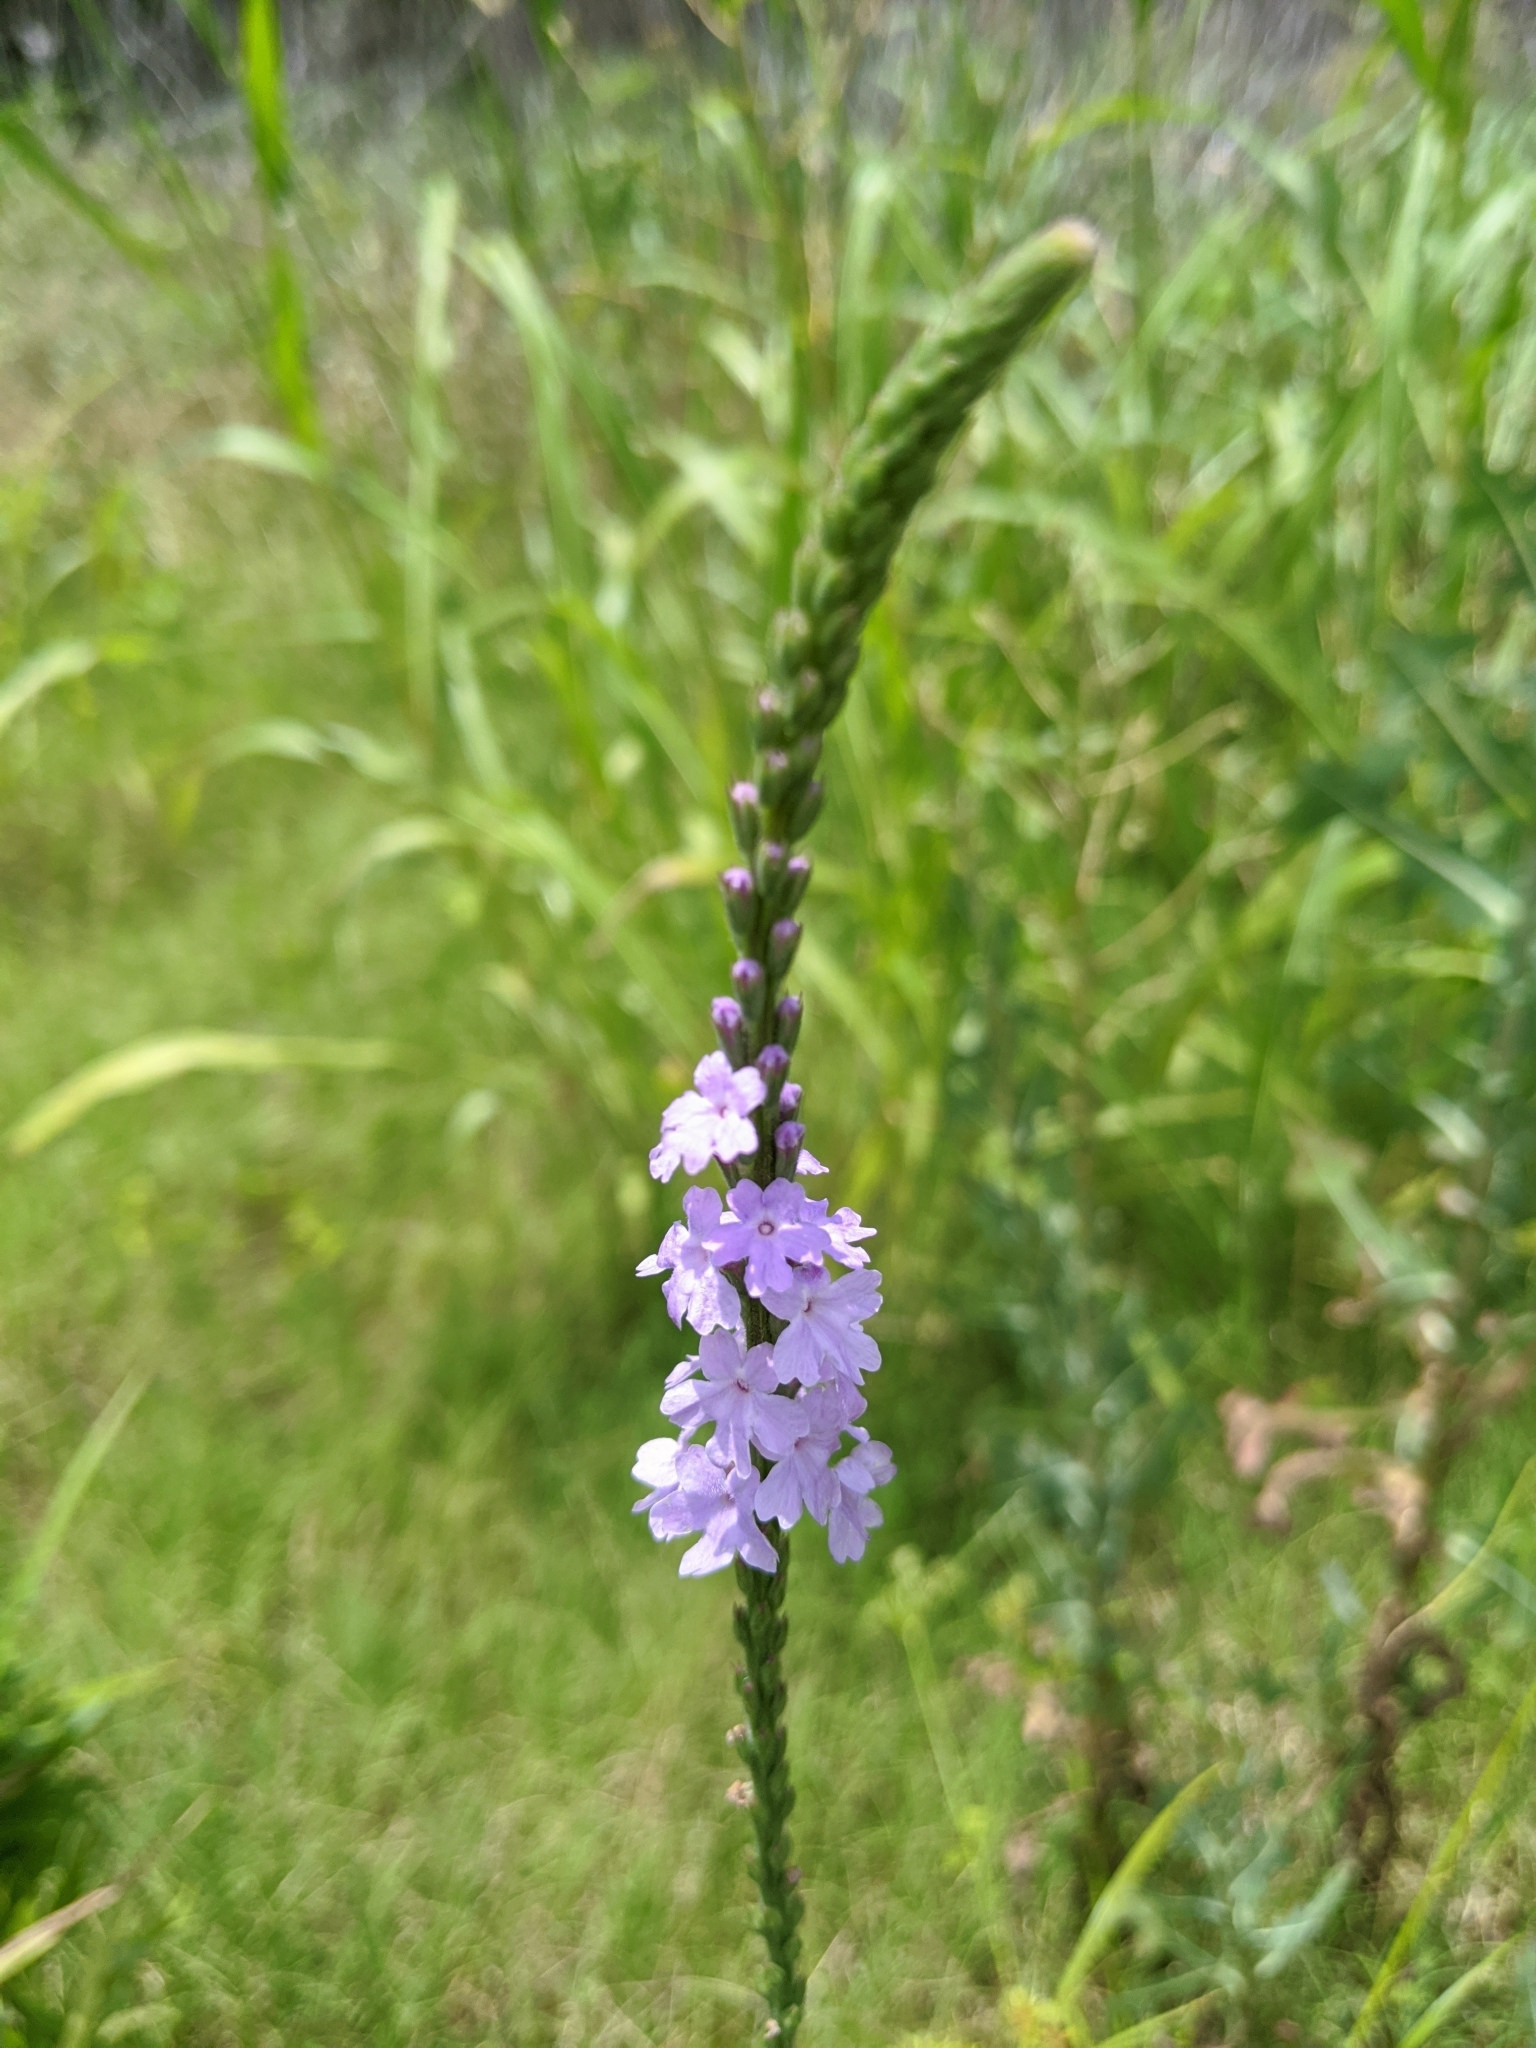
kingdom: Plantae
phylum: Tracheophyta
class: Magnoliopsida
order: Lamiales
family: Verbenaceae
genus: Verbena
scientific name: Verbena xutha
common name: Gulf vervain
